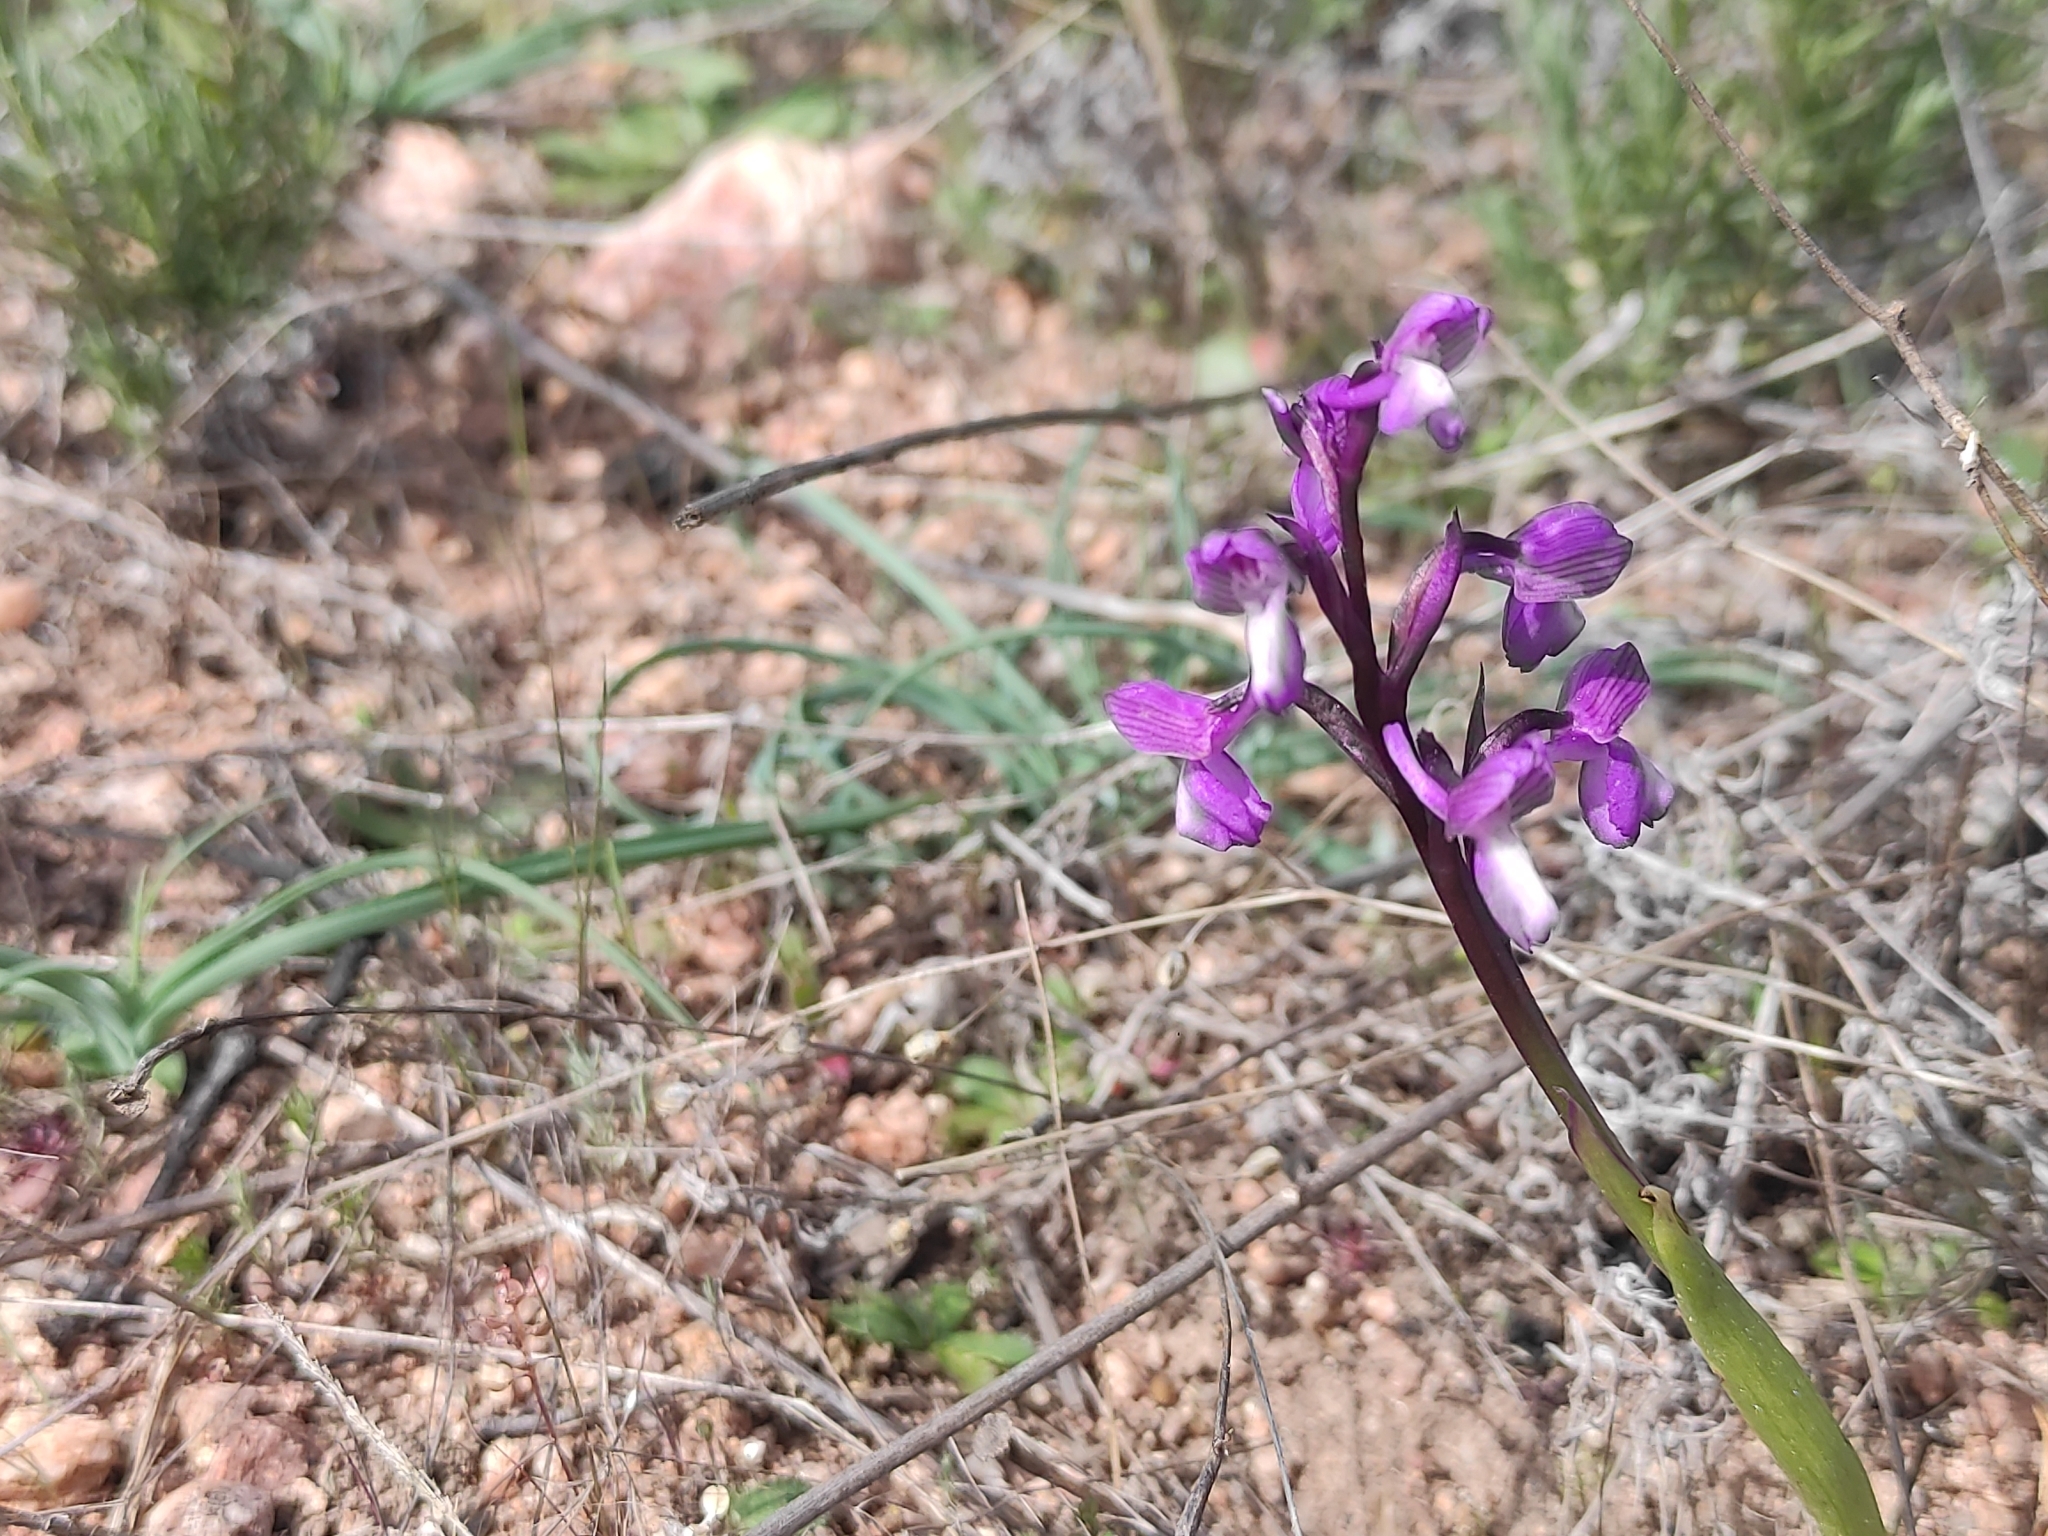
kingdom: Plantae
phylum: Tracheophyta
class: Liliopsida
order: Asparagales
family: Orchidaceae
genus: Anacamptis
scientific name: Anacamptis morio
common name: Green-winged orchid
